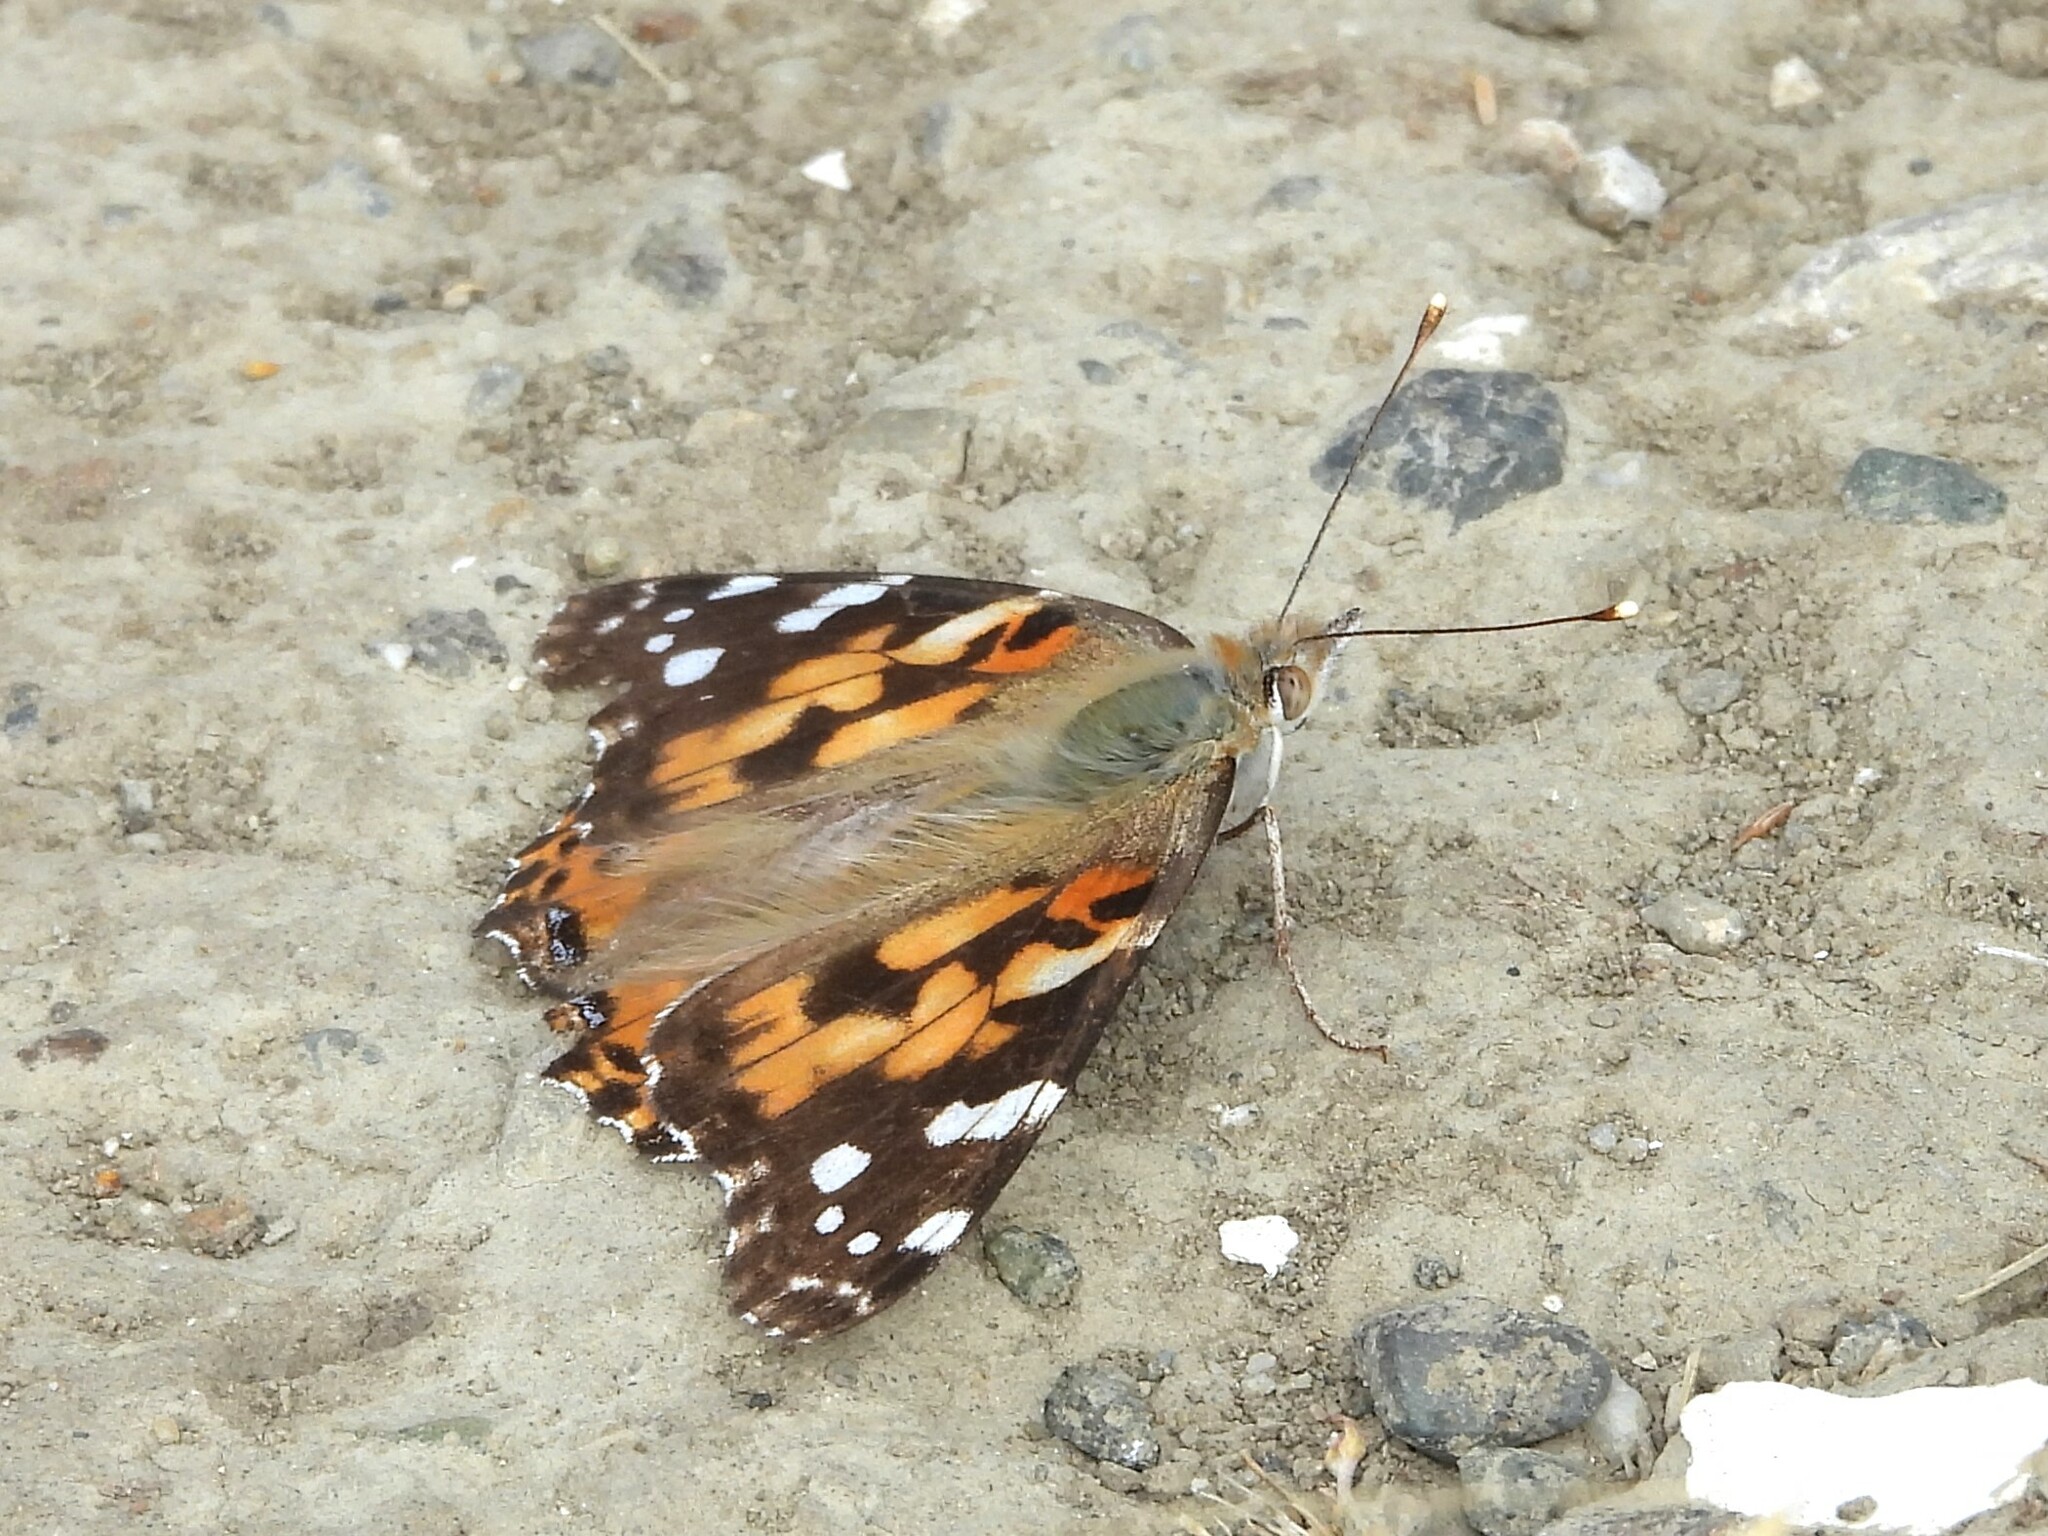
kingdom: Animalia
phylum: Arthropoda
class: Insecta
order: Lepidoptera
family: Nymphalidae
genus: Vanessa
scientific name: Vanessa cardui
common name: Painted lady
